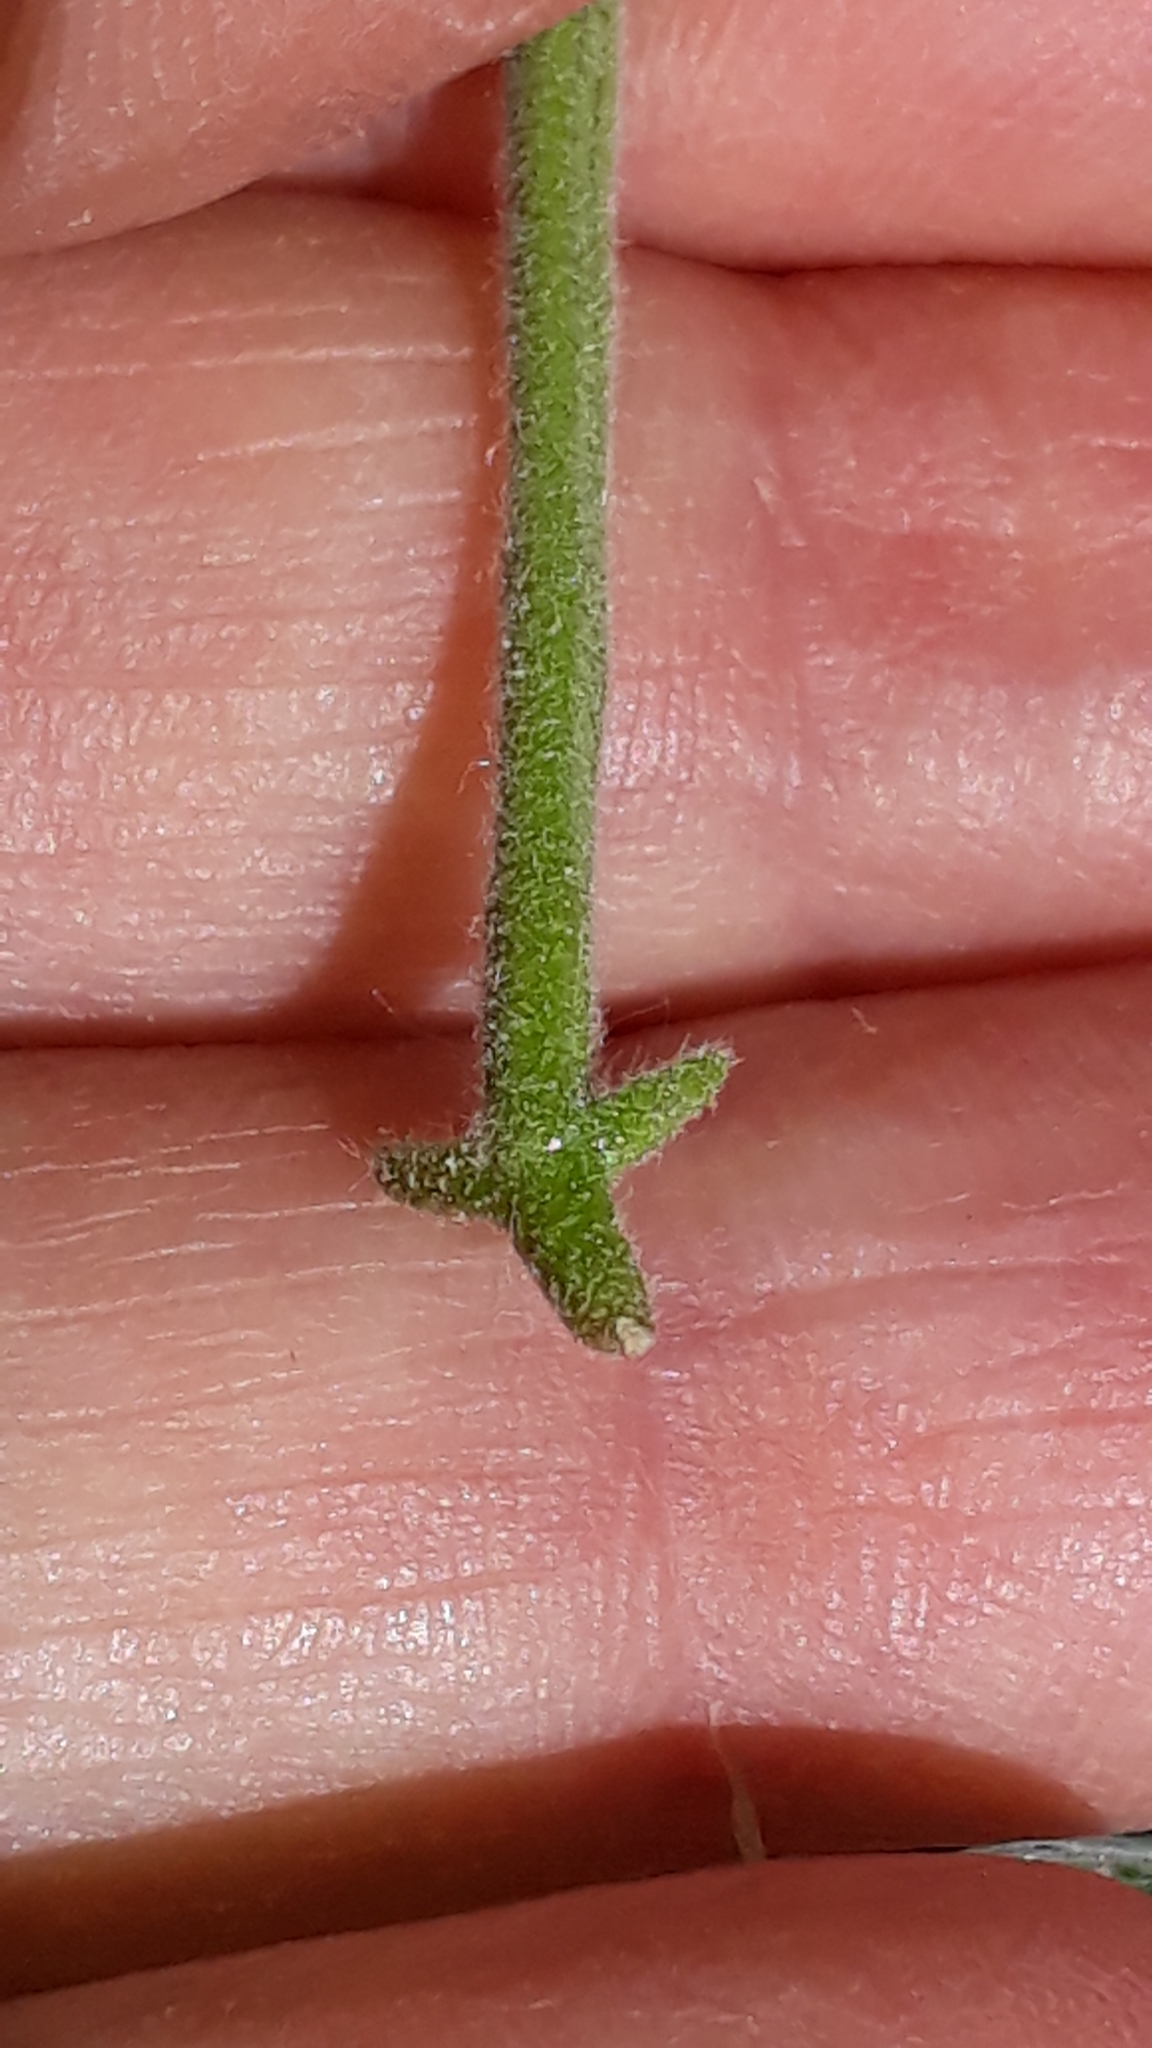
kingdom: Plantae
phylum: Tracheophyta
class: Magnoliopsida
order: Brassicales
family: Brassicaceae
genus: Matthiola
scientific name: Matthiola tricuspidata
